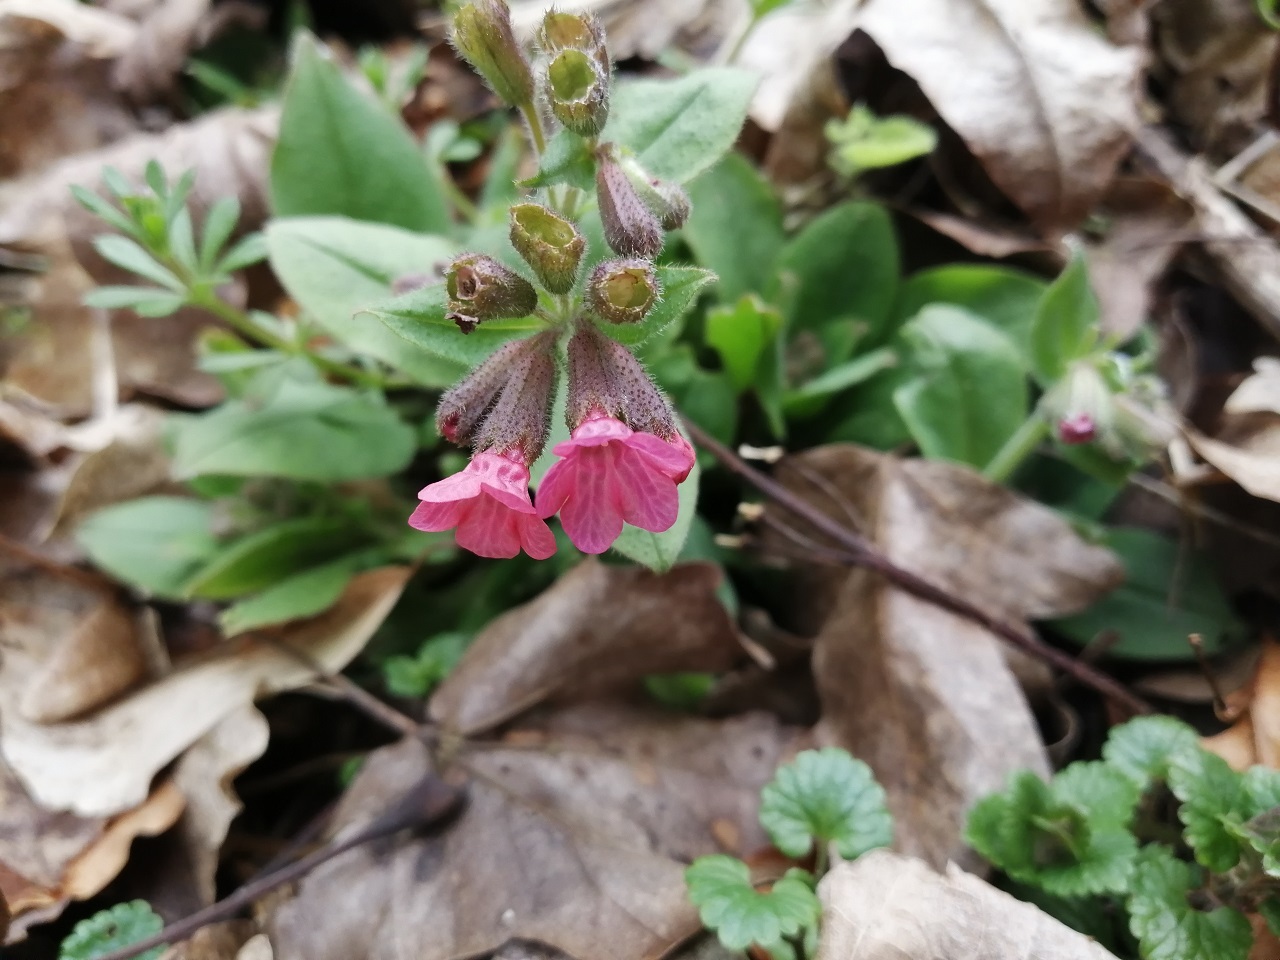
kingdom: Plantae
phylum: Tracheophyta
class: Magnoliopsida
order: Boraginales
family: Boraginaceae
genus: Pulmonaria
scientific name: Pulmonaria obscura
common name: Suffolk lungwort
